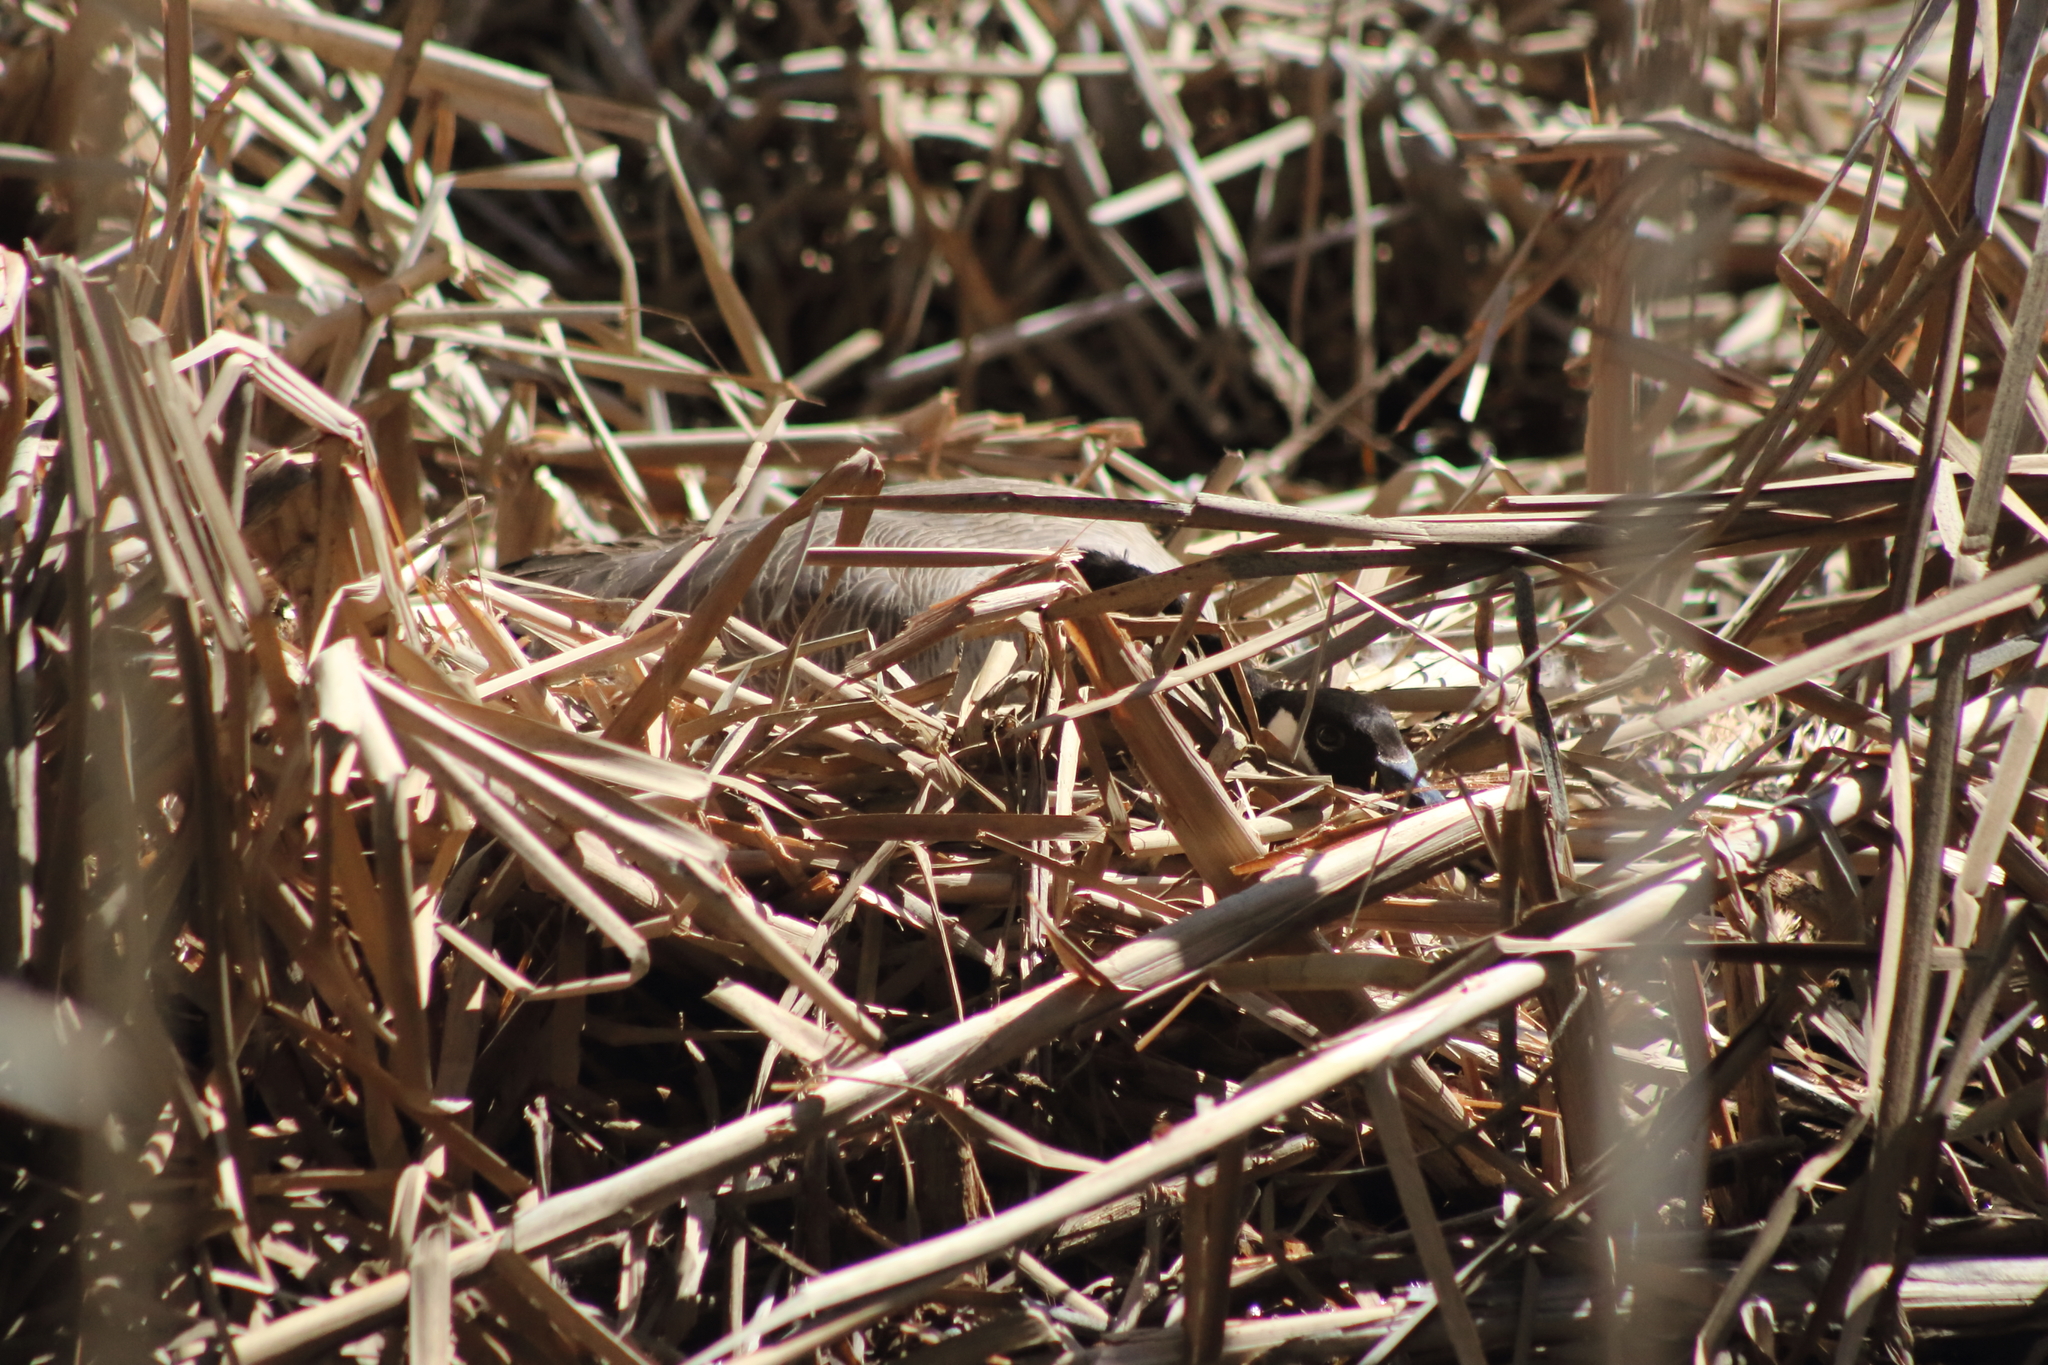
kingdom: Animalia
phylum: Chordata
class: Aves
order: Anseriformes
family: Anatidae
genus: Branta
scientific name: Branta canadensis
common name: Canada goose
